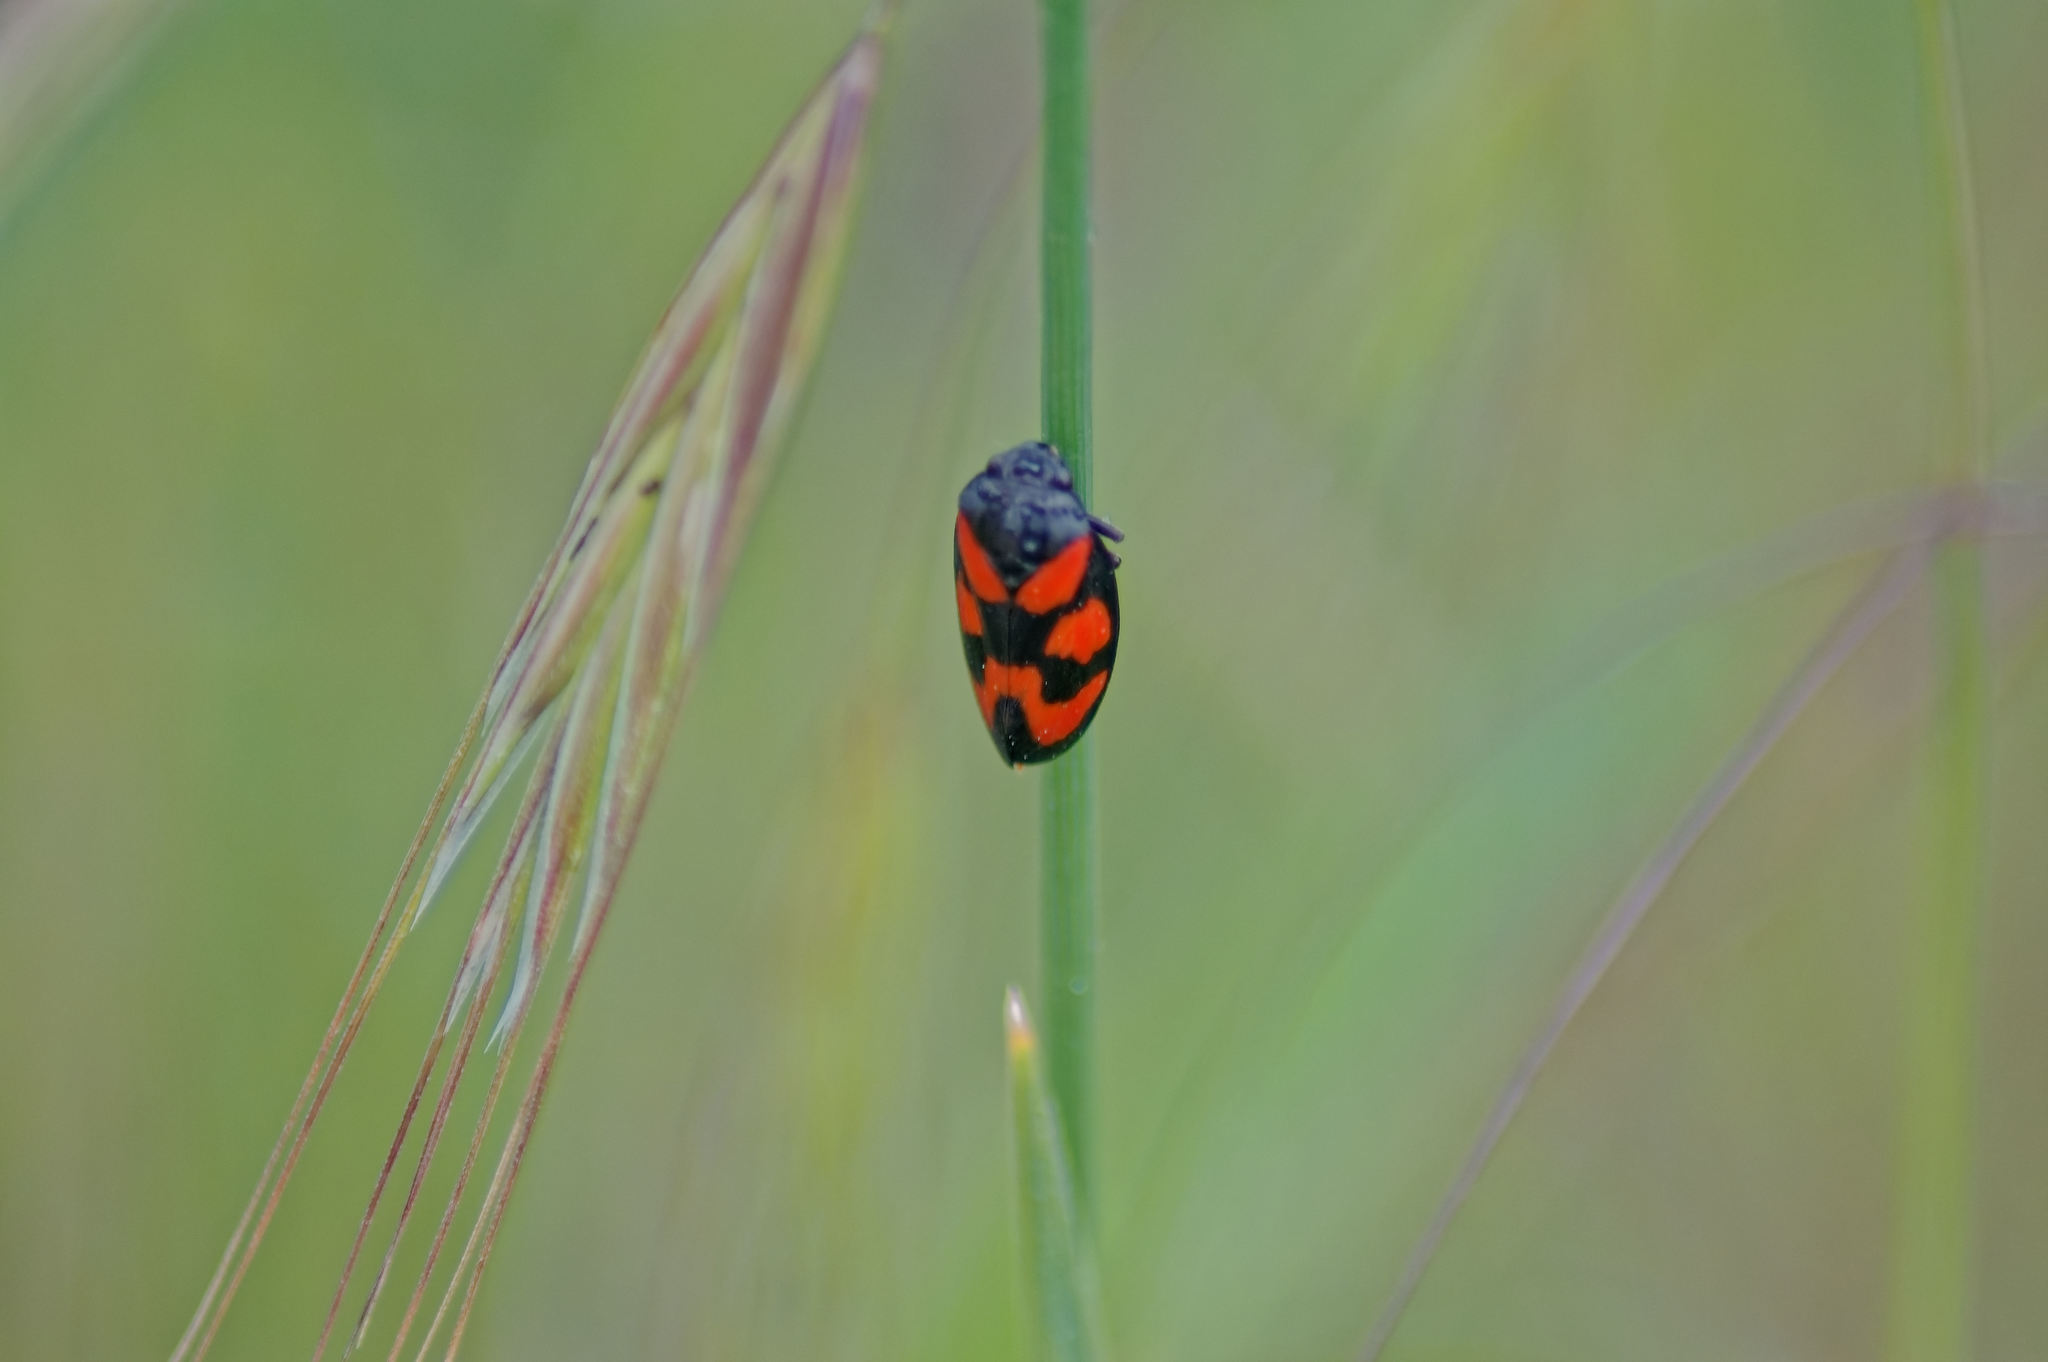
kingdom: Animalia
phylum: Arthropoda
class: Insecta
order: Hemiptera
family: Cercopidae
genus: Cercopis
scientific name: Cercopis vulnerata
